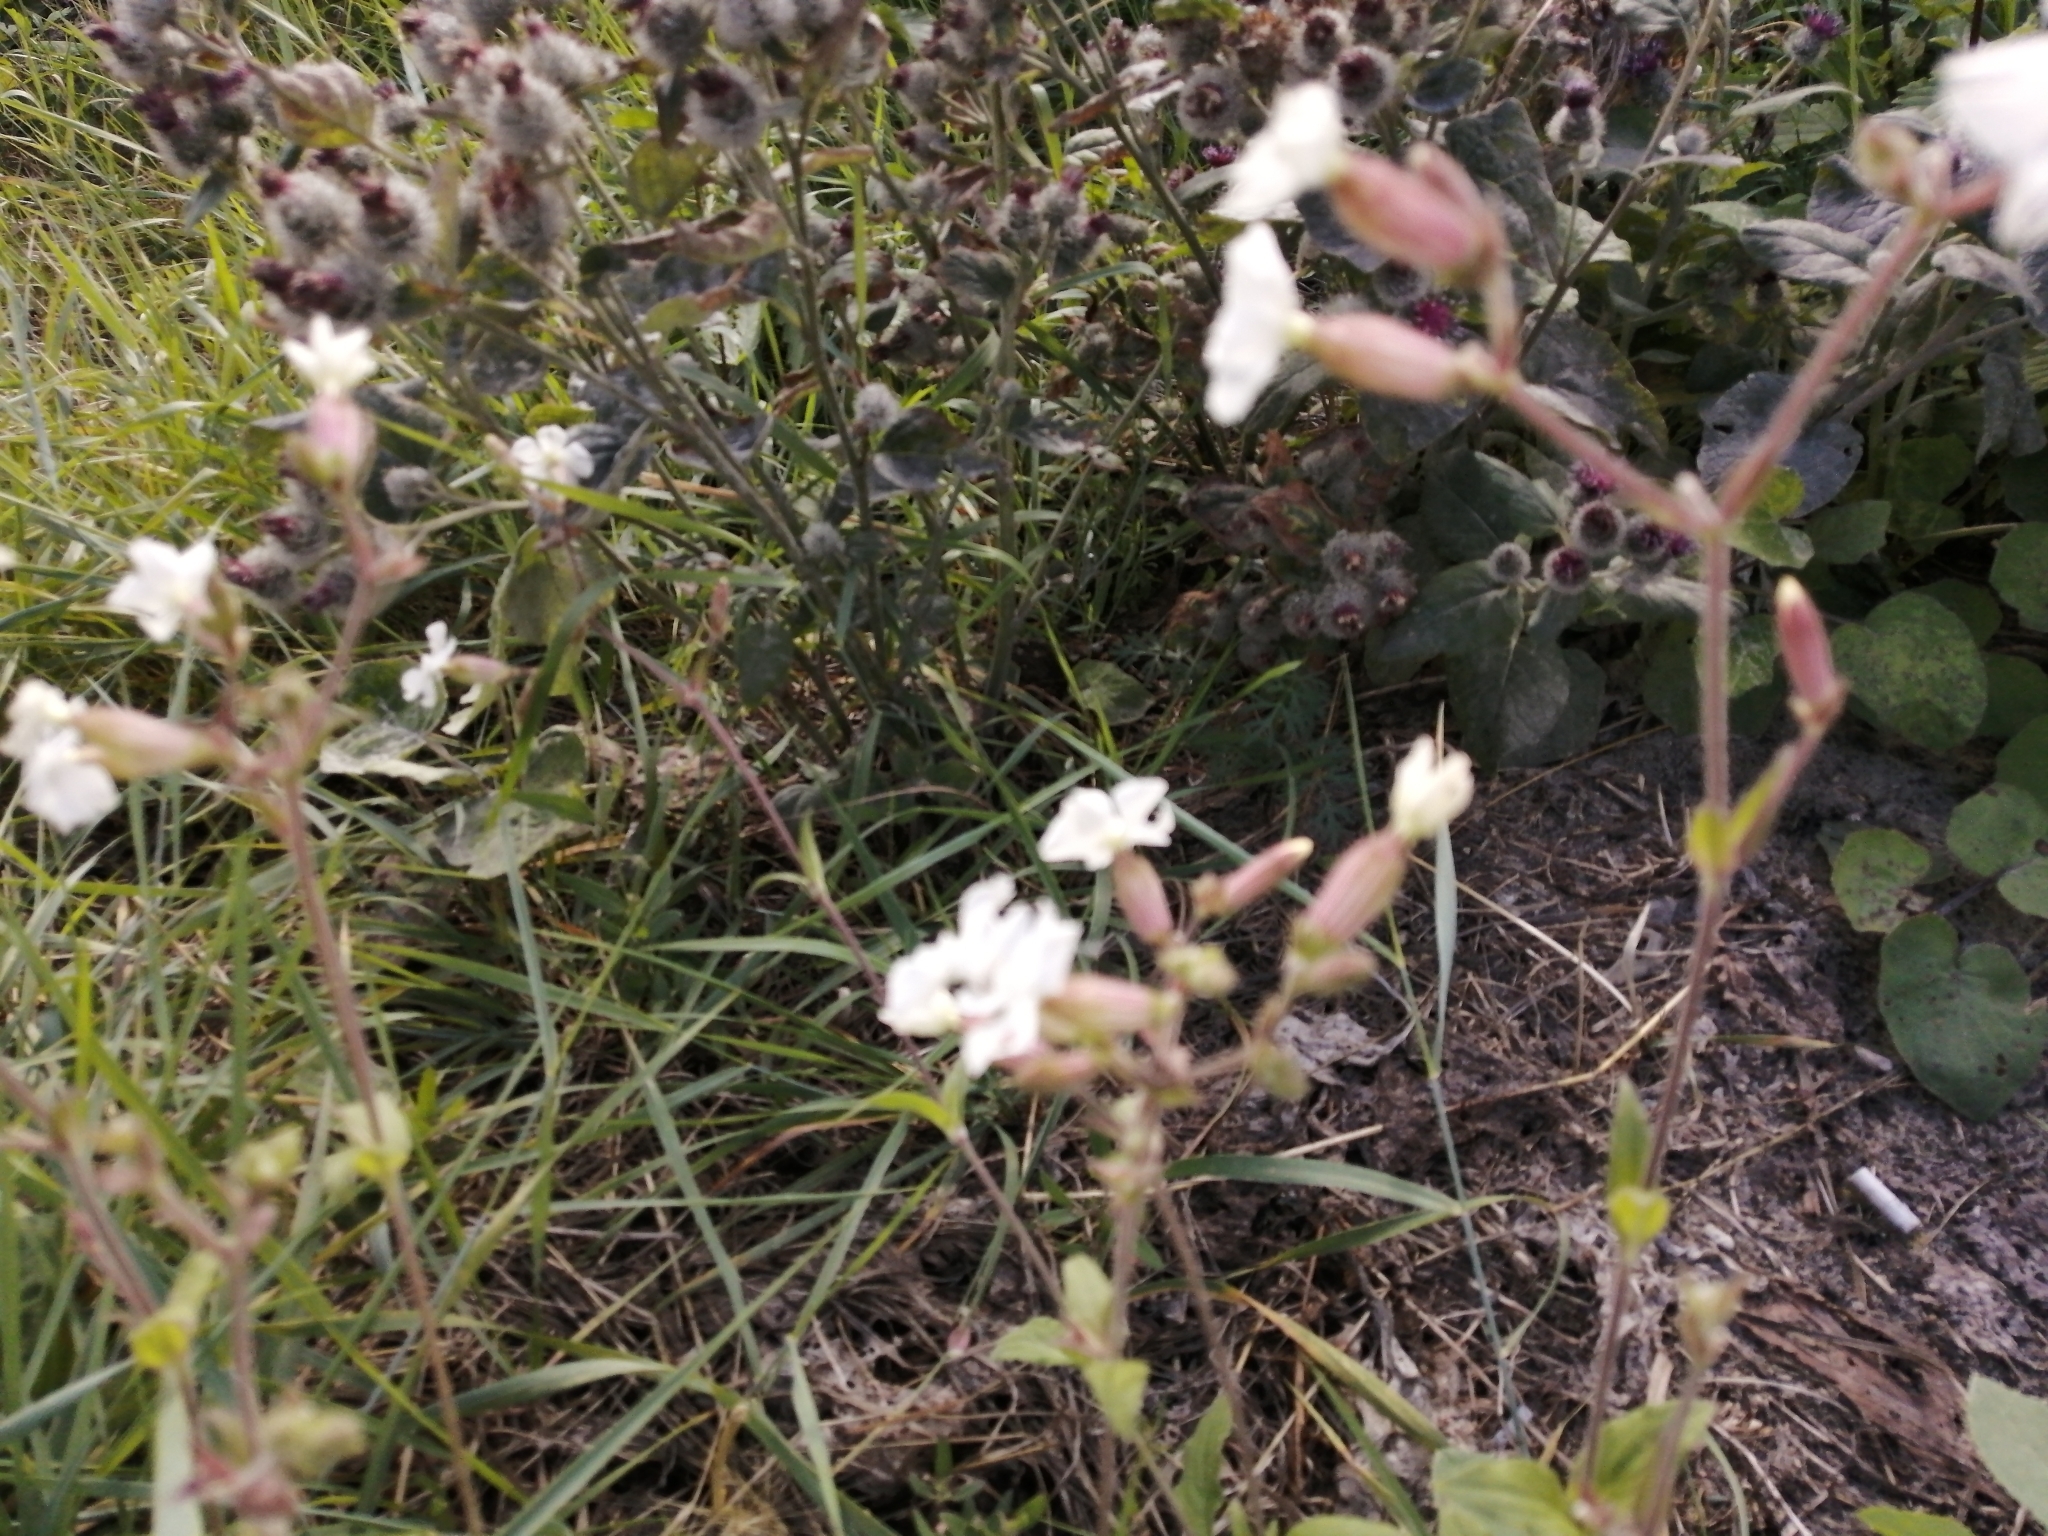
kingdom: Plantae
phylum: Tracheophyta
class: Magnoliopsida
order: Caryophyllales
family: Caryophyllaceae
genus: Silene
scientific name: Silene latifolia
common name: White campion
